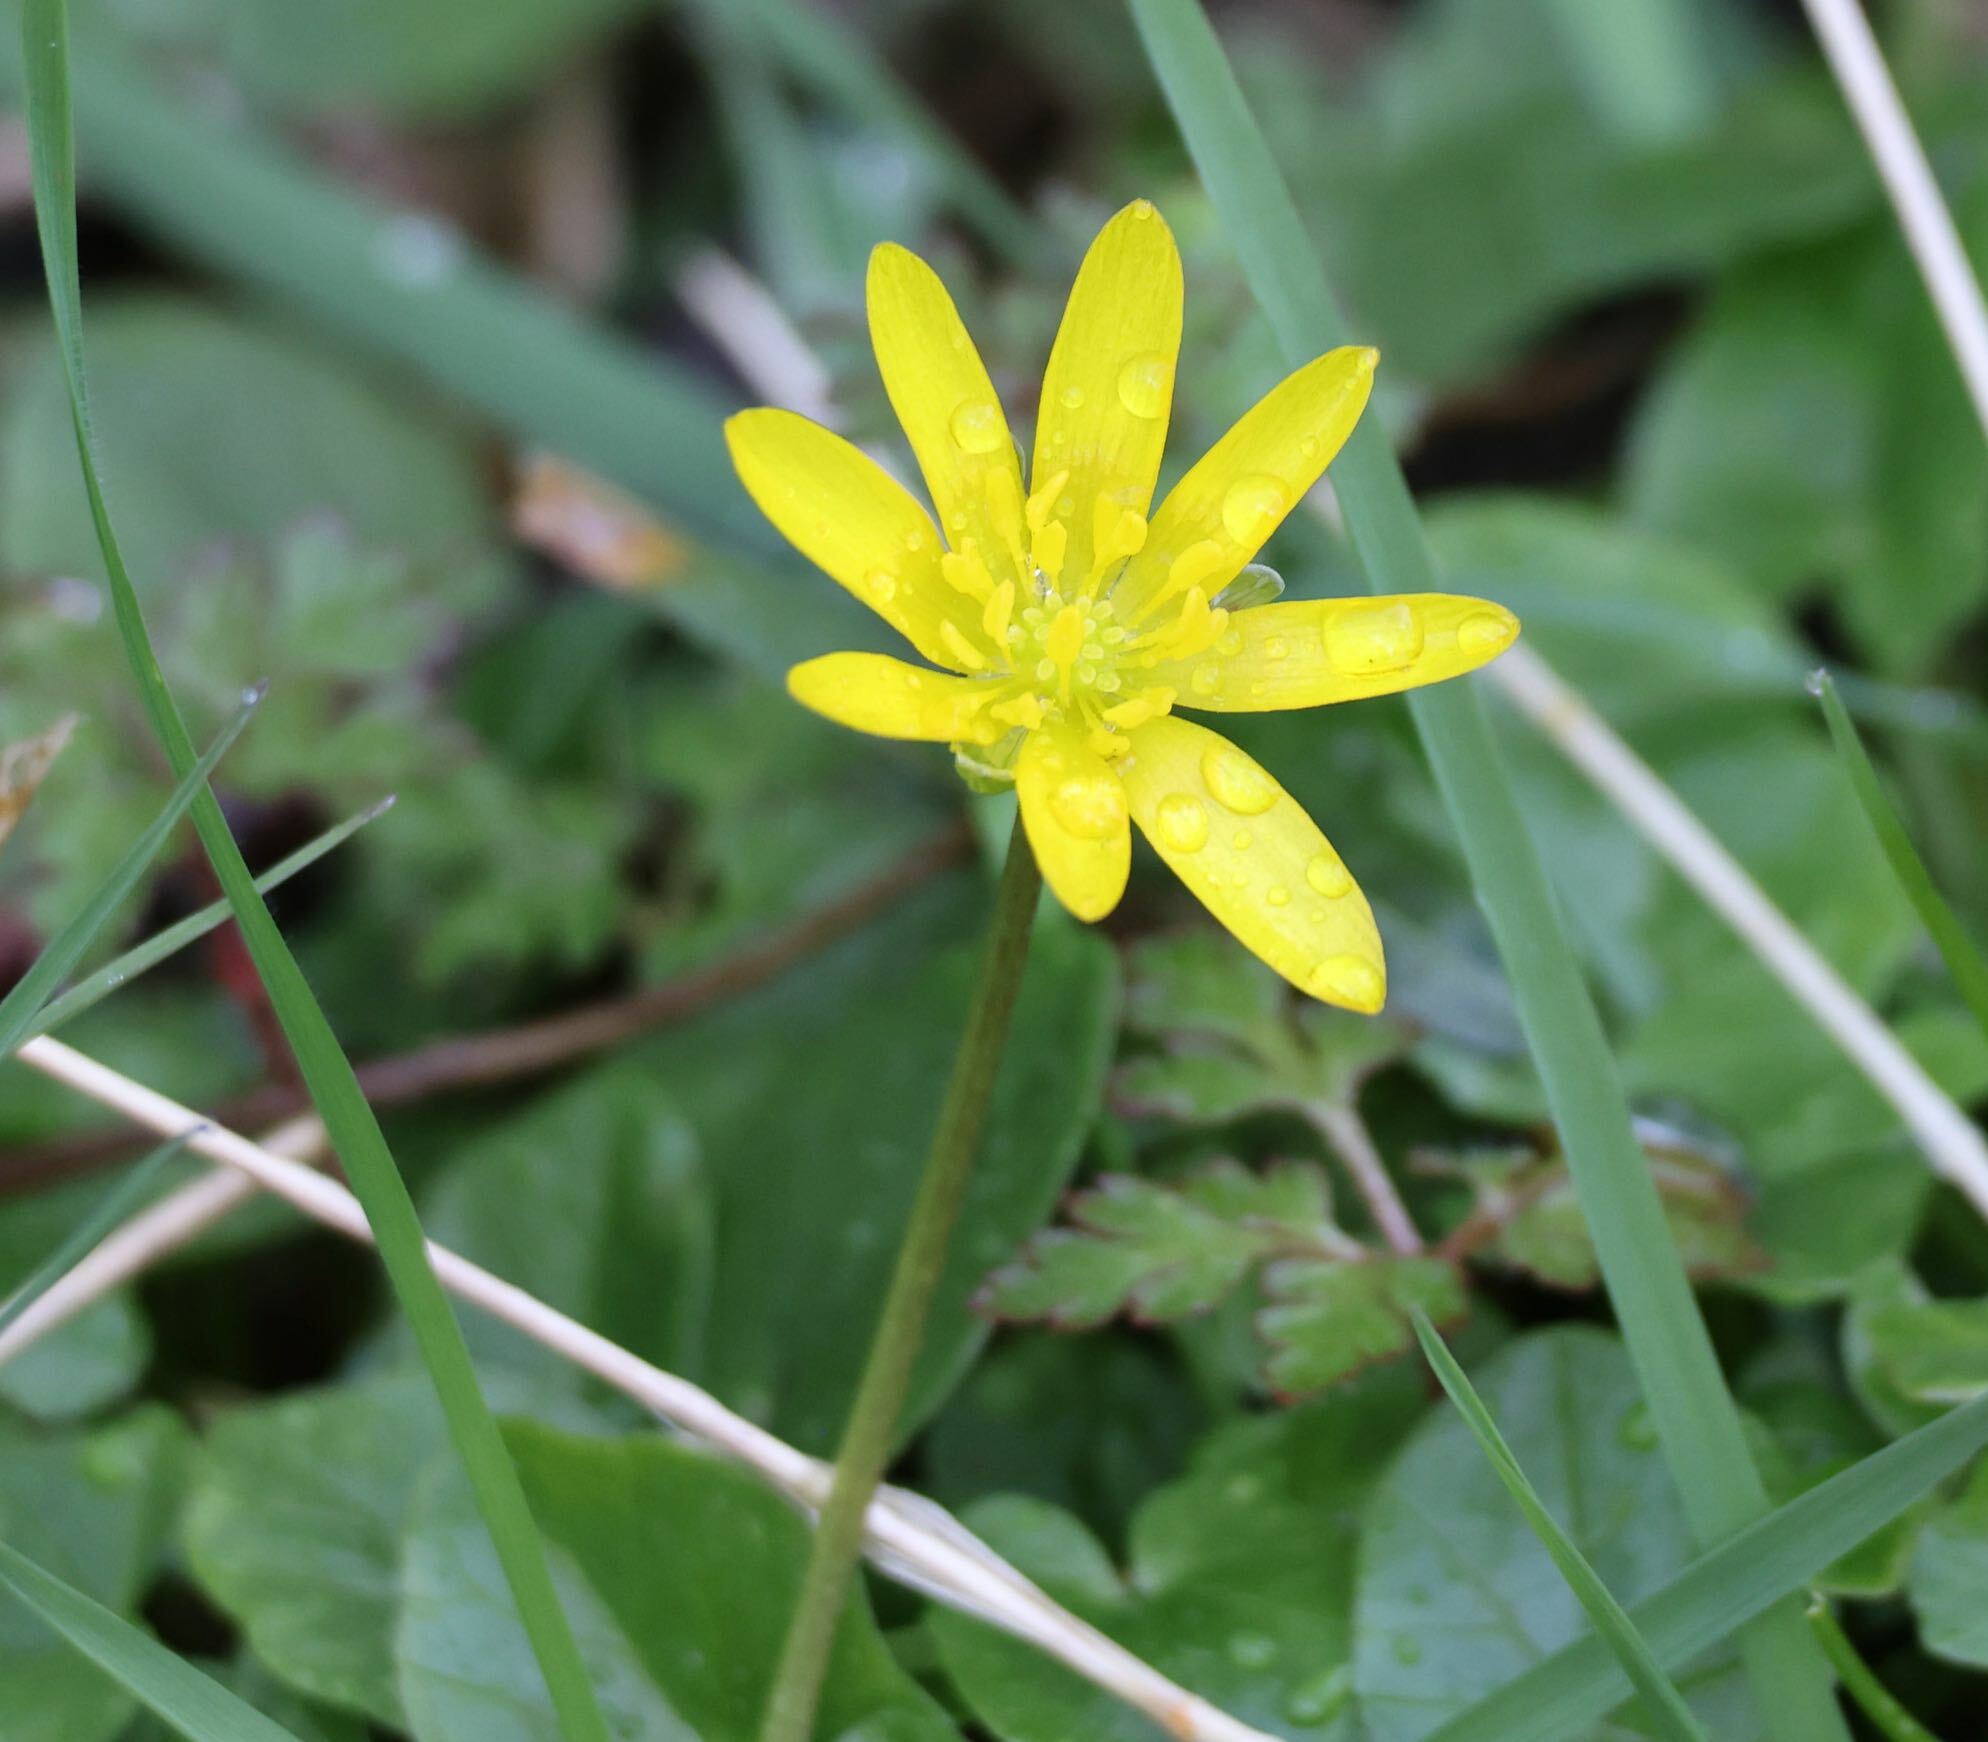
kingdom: Plantae
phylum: Tracheophyta
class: Magnoliopsida
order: Ranunculales
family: Ranunculaceae
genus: Ficaria
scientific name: Ficaria verna
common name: Lesser celandine
